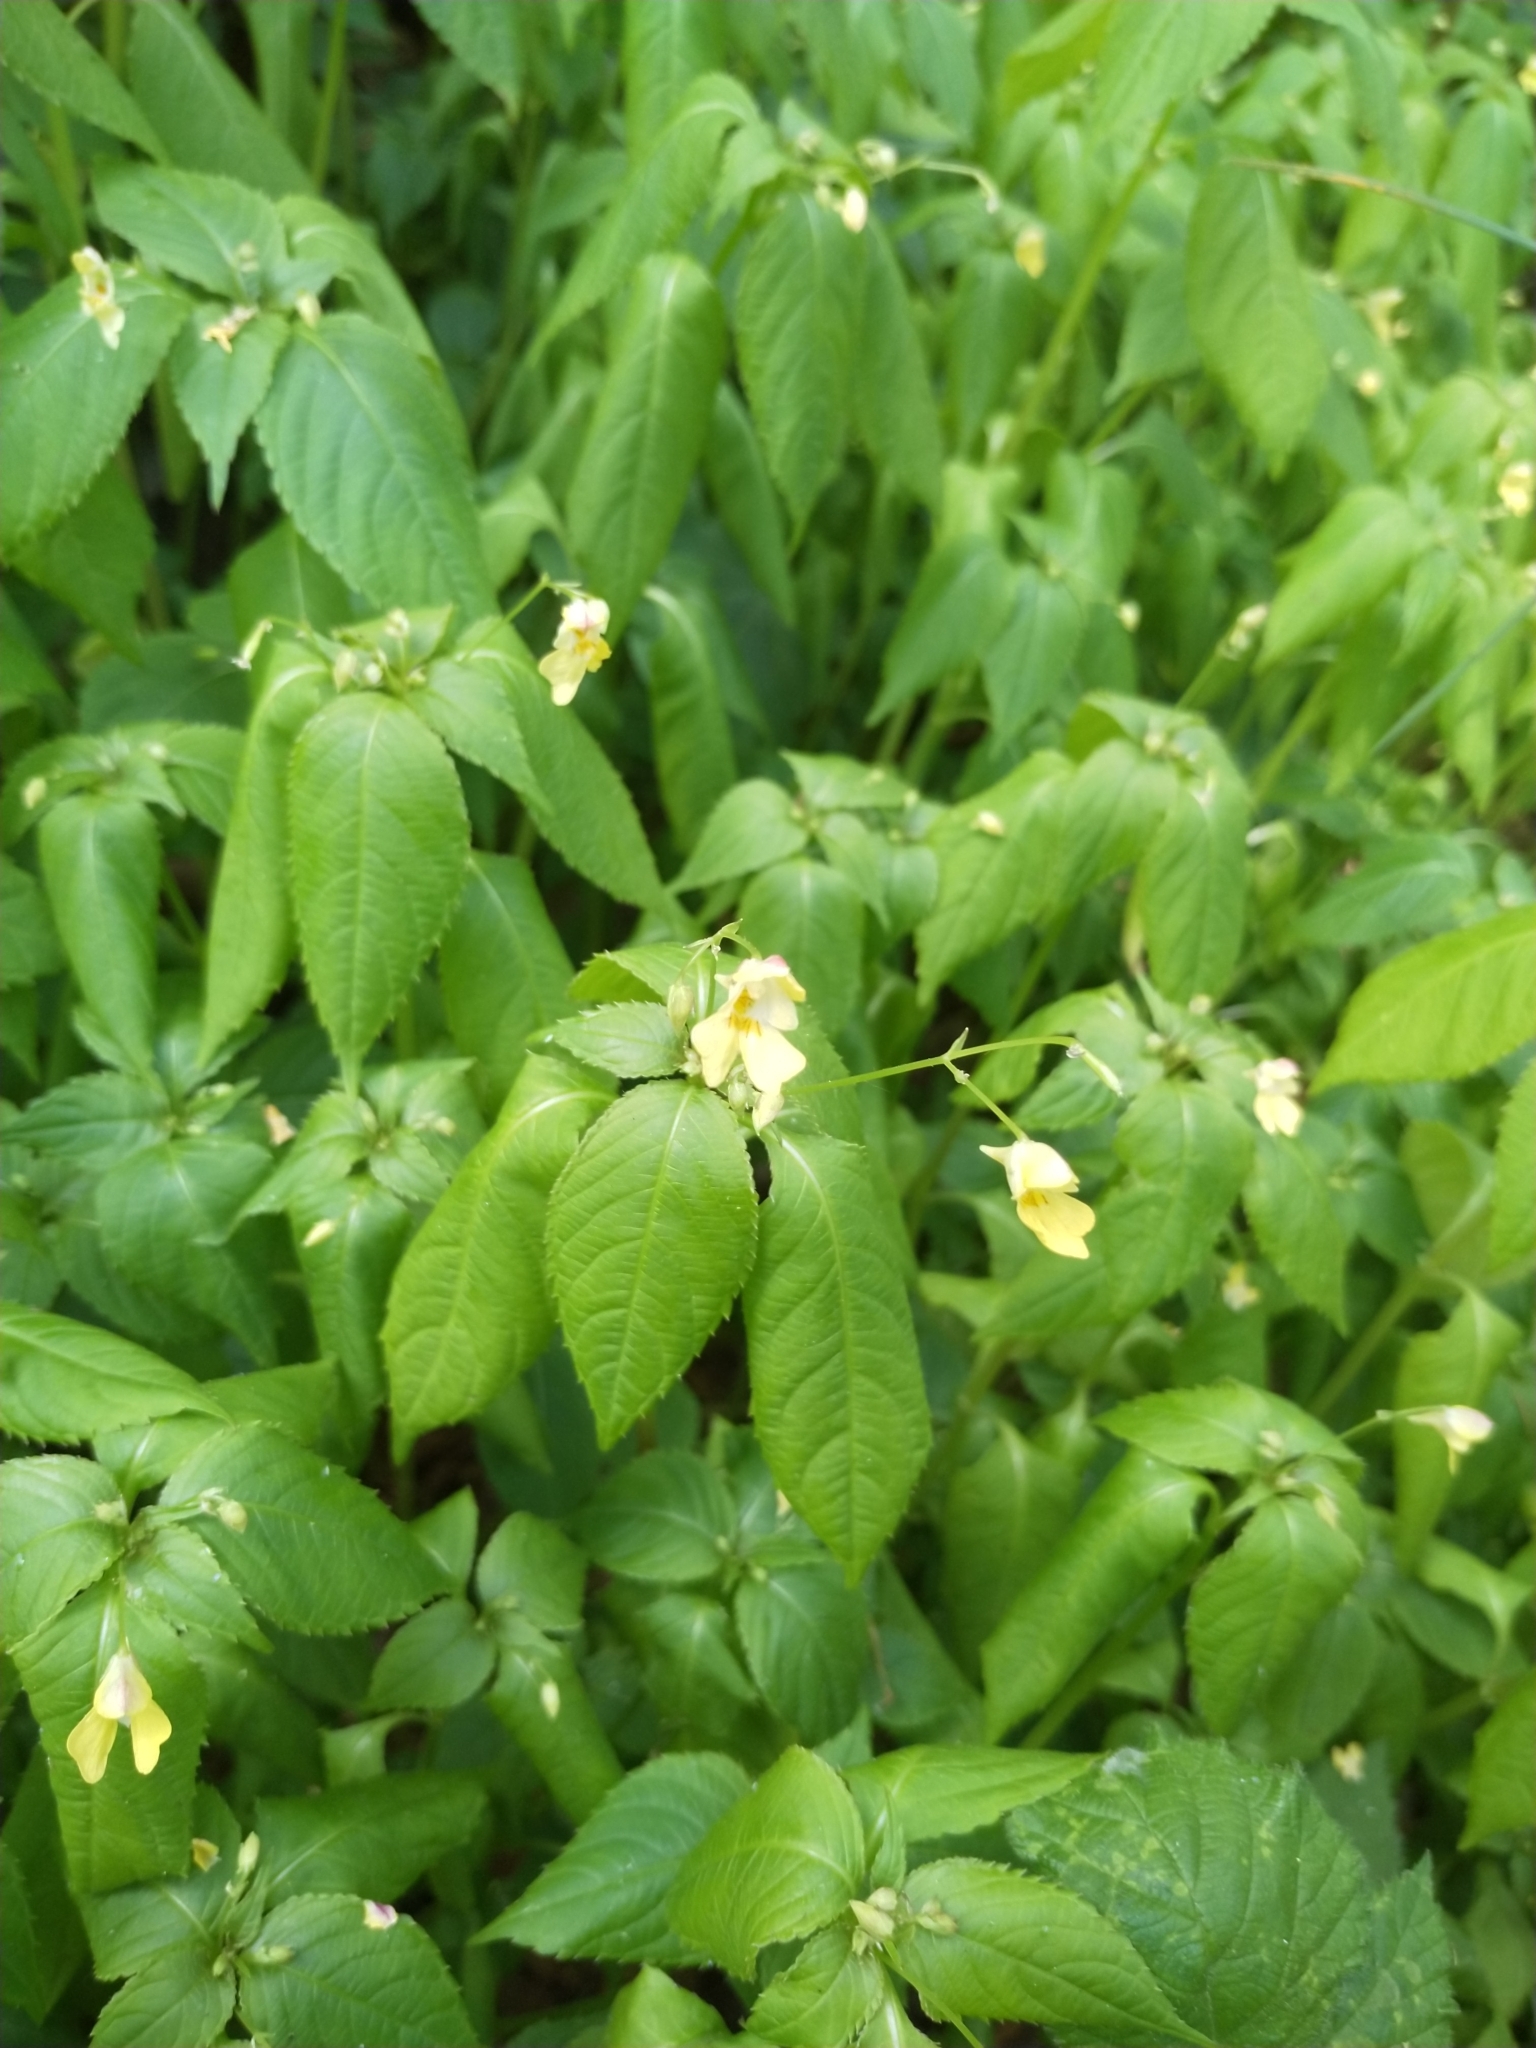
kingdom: Plantae
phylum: Tracheophyta
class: Magnoliopsida
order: Ericales
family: Balsaminaceae
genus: Impatiens
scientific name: Impatiens parviflora
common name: Small balsam
